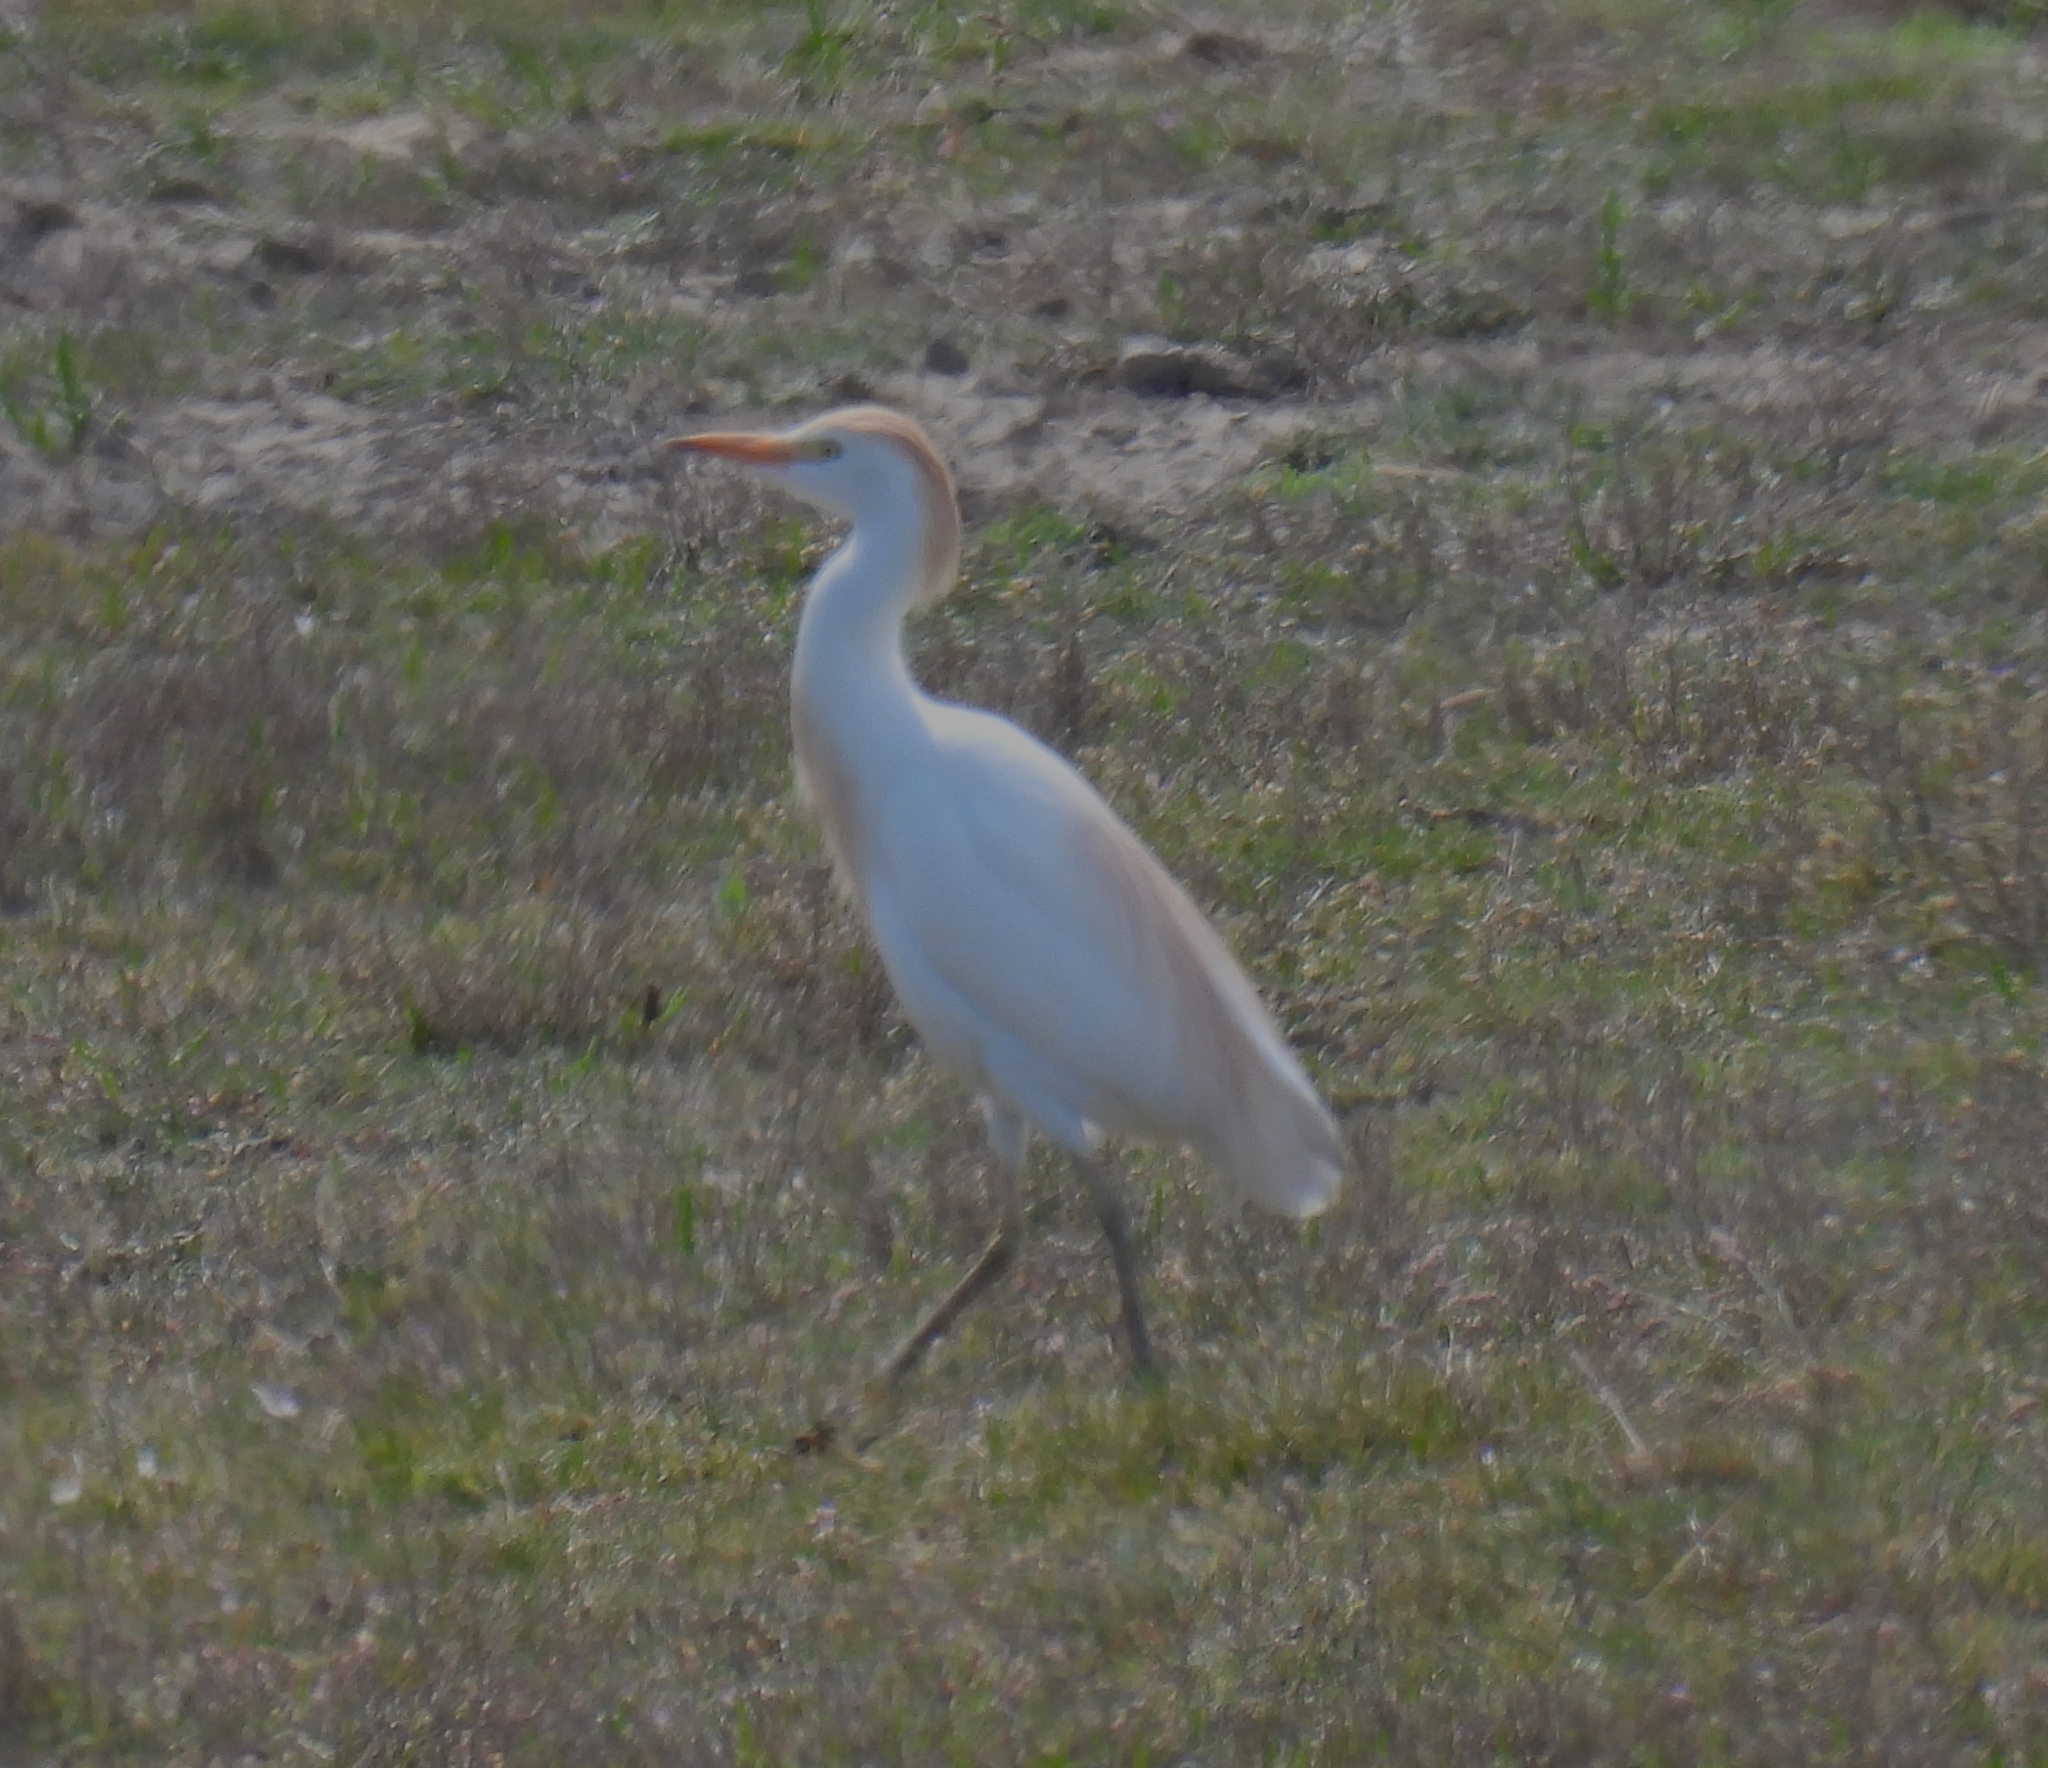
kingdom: Animalia
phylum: Chordata
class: Aves
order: Pelecaniformes
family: Ardeidae
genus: Bubulcus
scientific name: Bubulcus ibis
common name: Cattle egret
